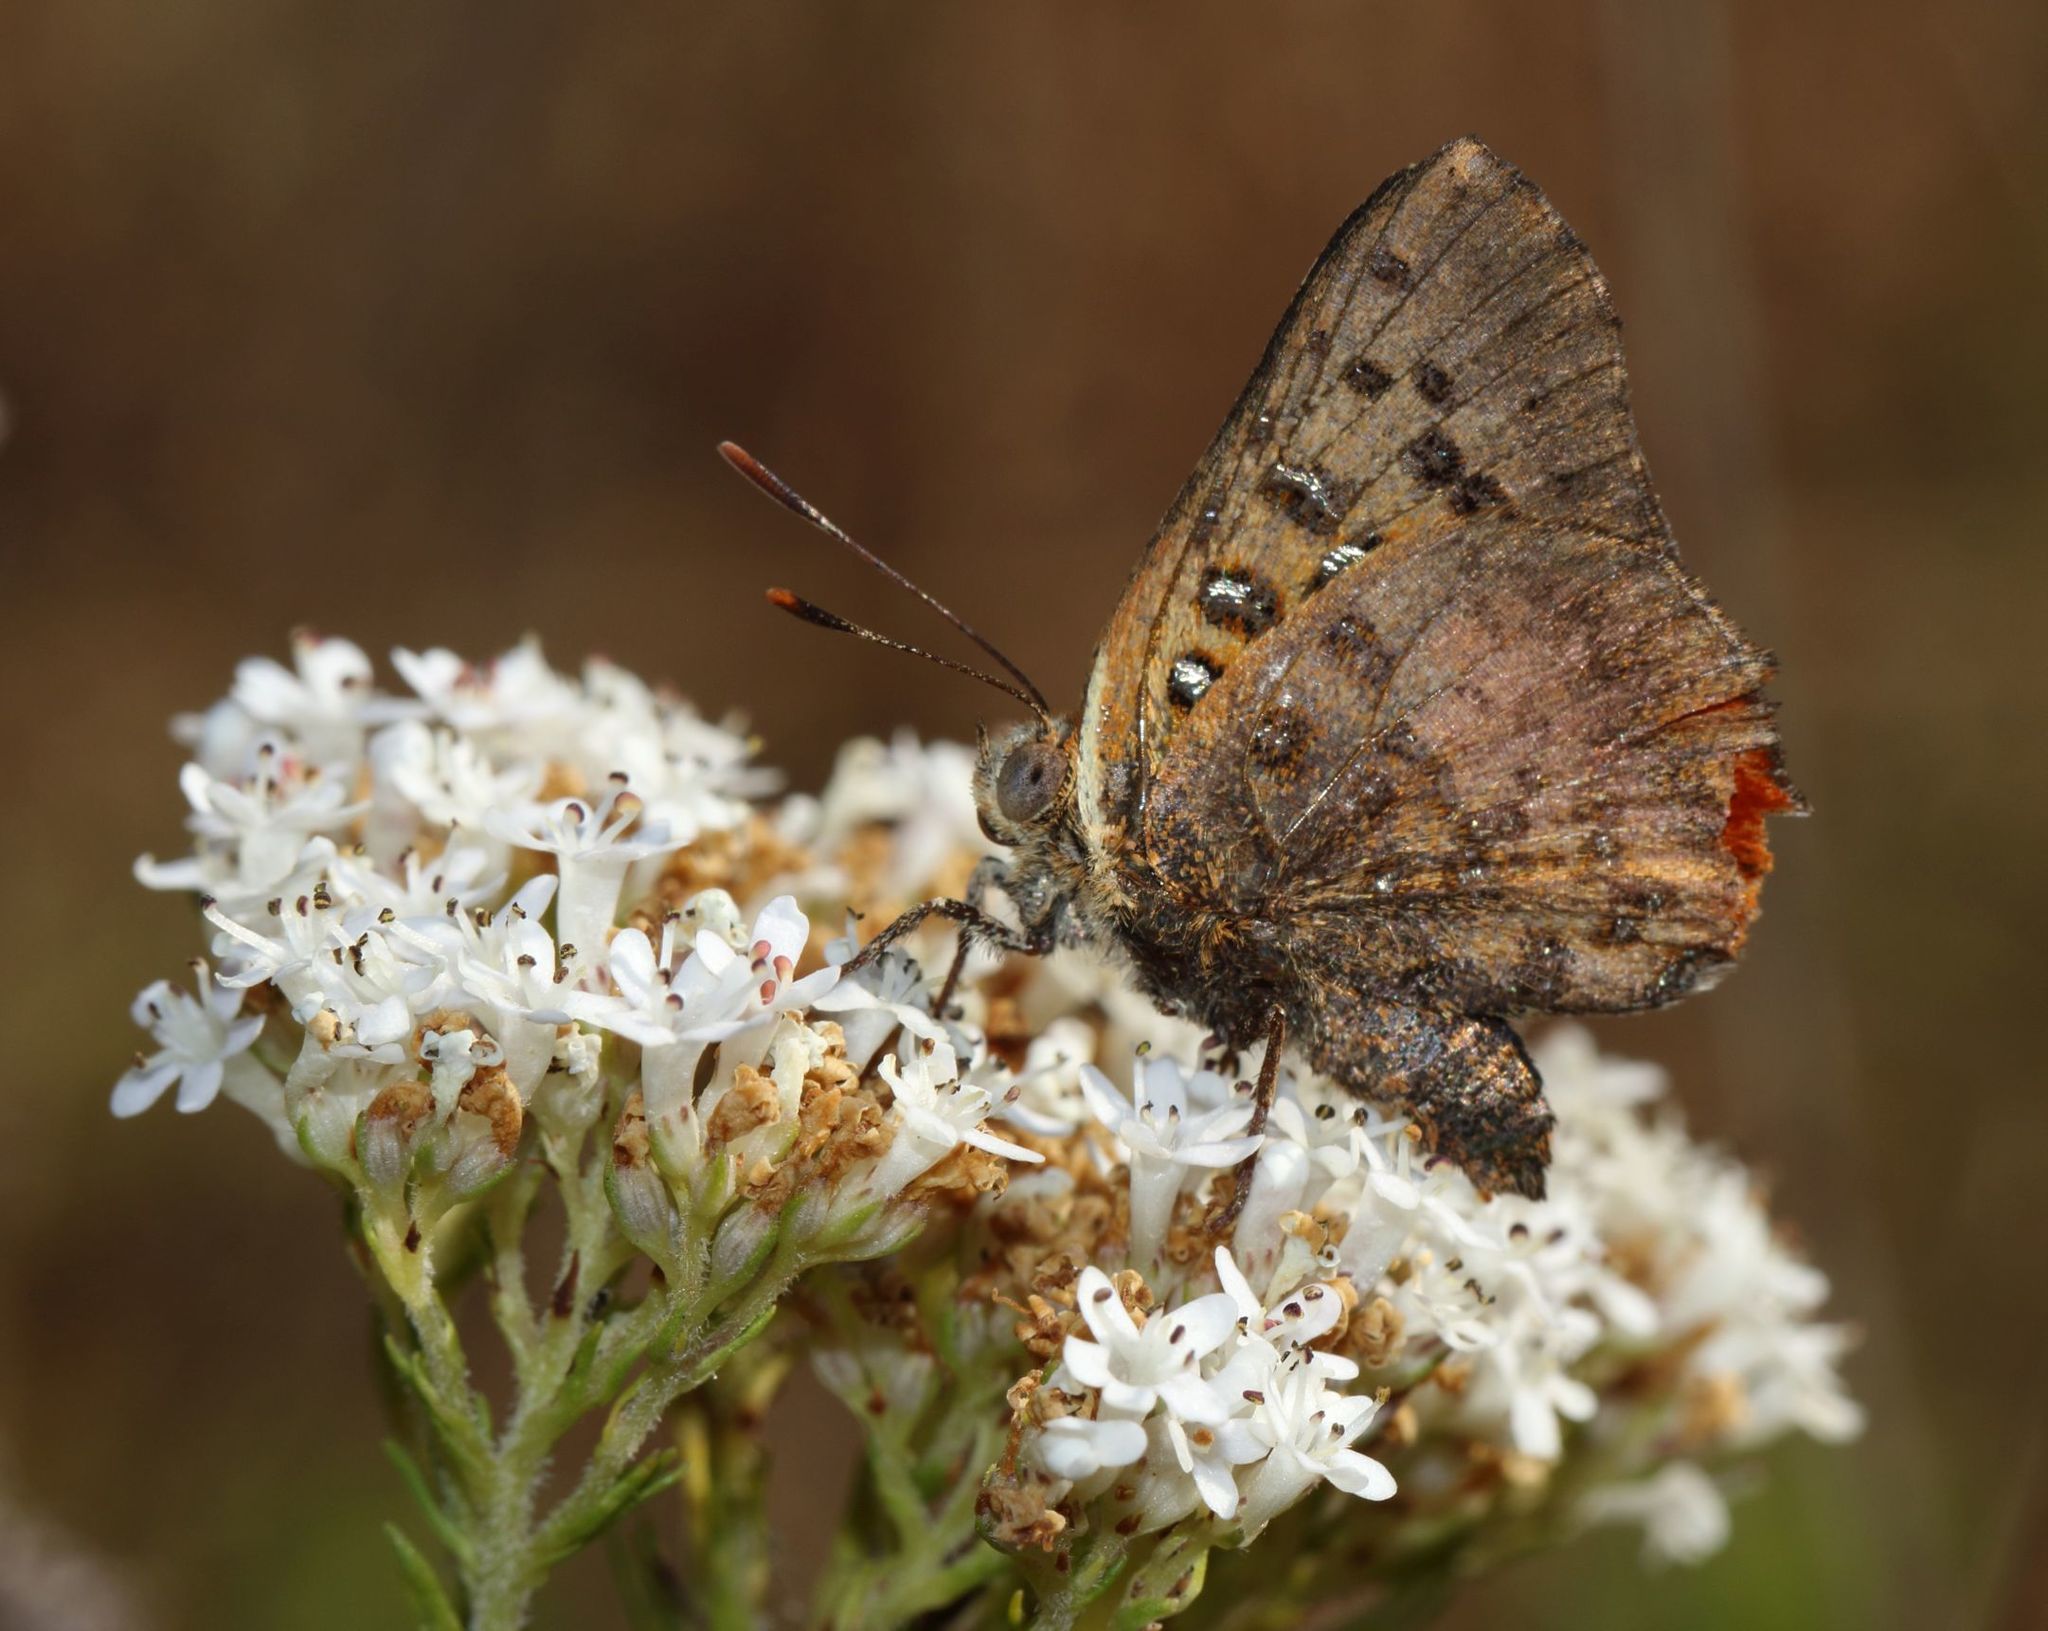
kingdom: Animalia
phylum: Arthropoda
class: Insecta
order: Lepidoptera
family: Lycaenidae
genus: Axiocerses
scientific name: Axiocerses perion
